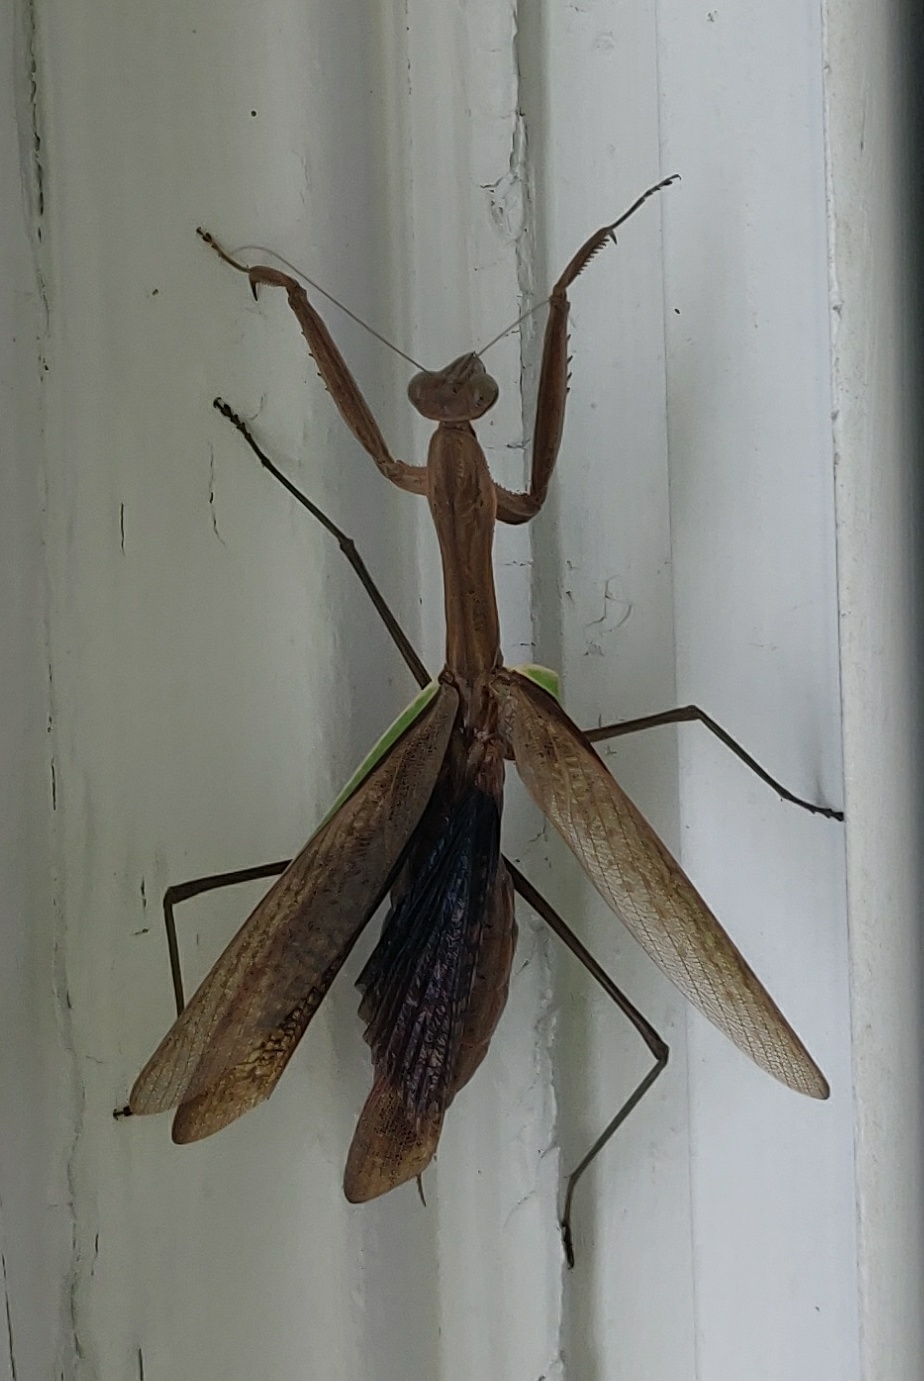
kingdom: Animalia
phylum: Arthropoda
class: Insecta
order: Mantodea
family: Mantidae
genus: Tenodera
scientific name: Tenodera sinensis
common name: Chinese mantis
